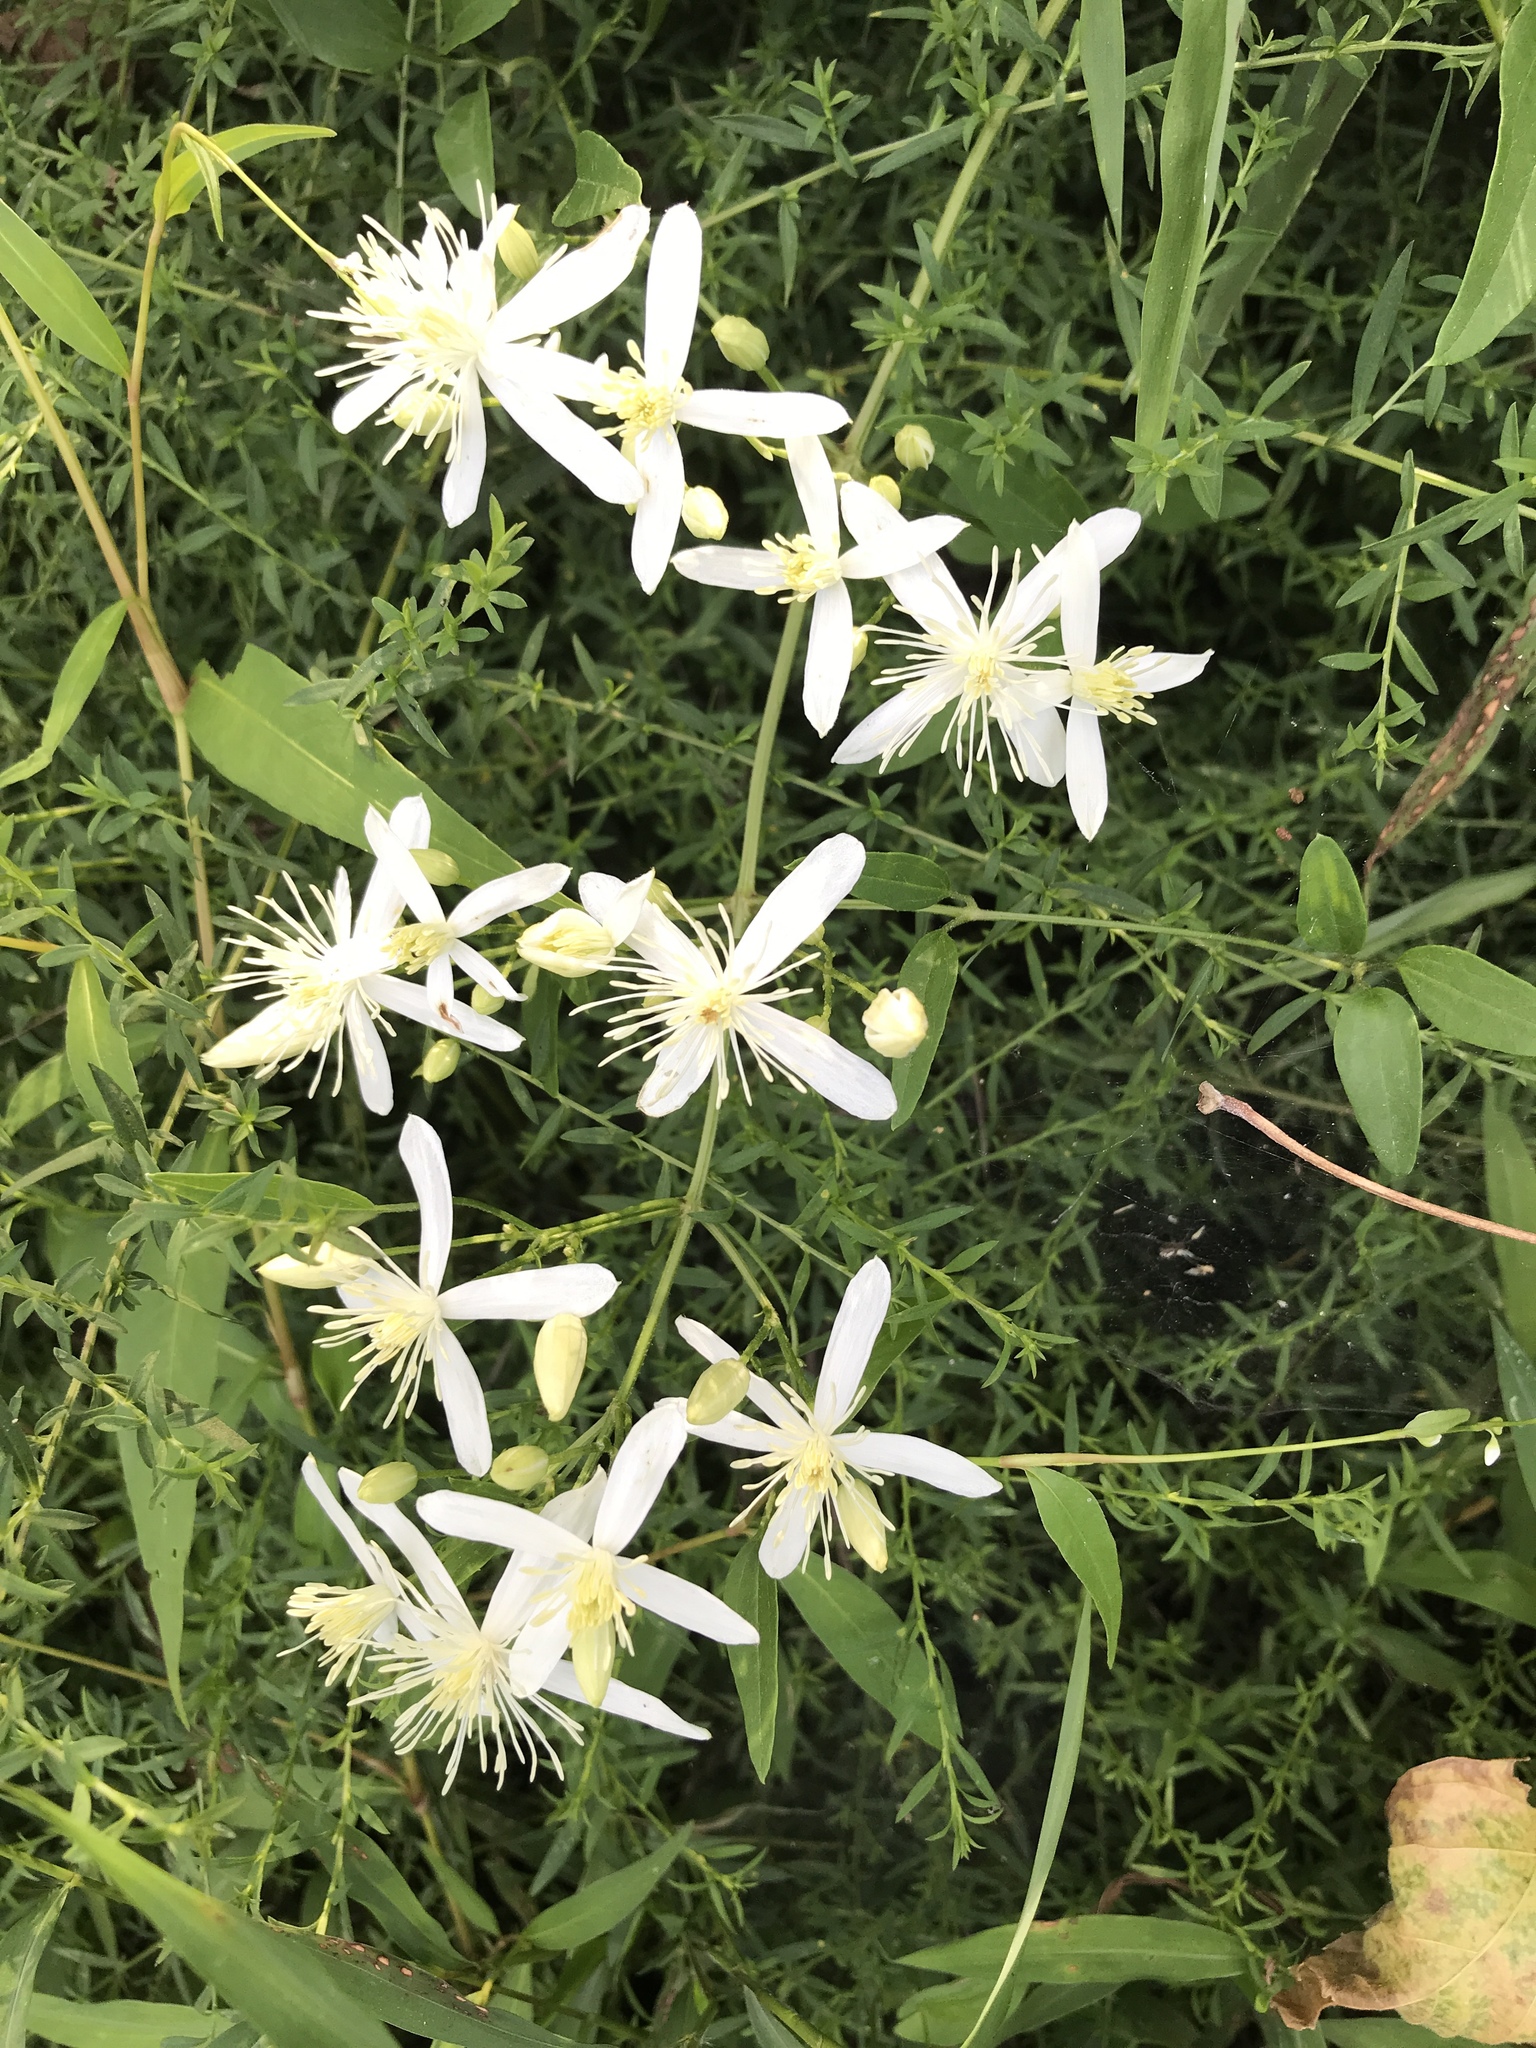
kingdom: Plantae
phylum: Tracheophyta
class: Magnoliopsida
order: Ranunculales
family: Ranunculaceae
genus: Clematis
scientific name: Clematis terniflora
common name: Sweet autumn clematis
